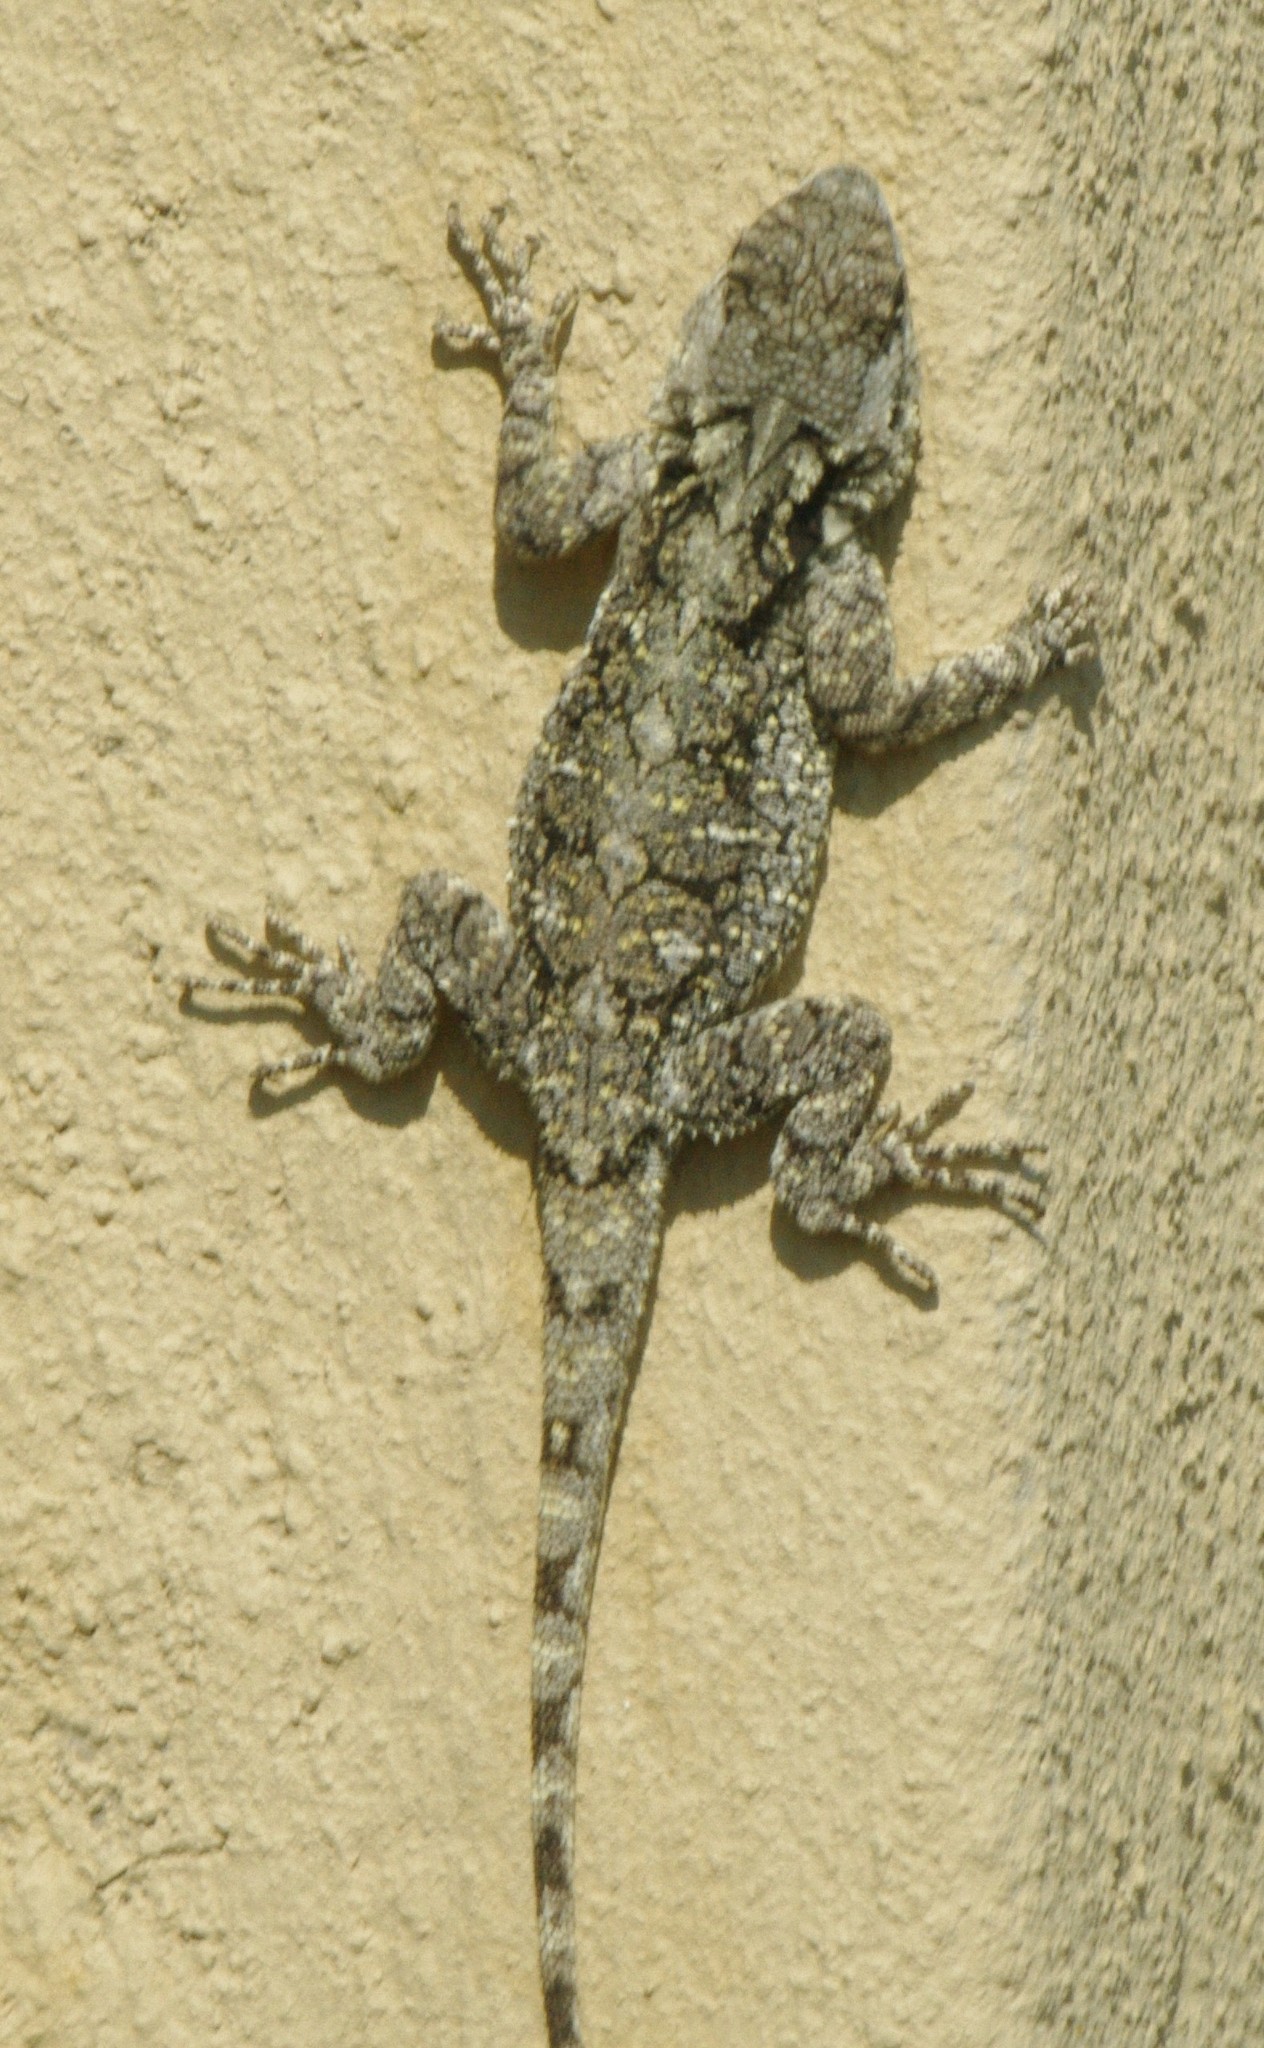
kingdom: Animalia
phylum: Chordata
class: Squamata
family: Agamidae
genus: Acanthocercus
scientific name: Acanthocercus atricollis
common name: Southern tree agama
